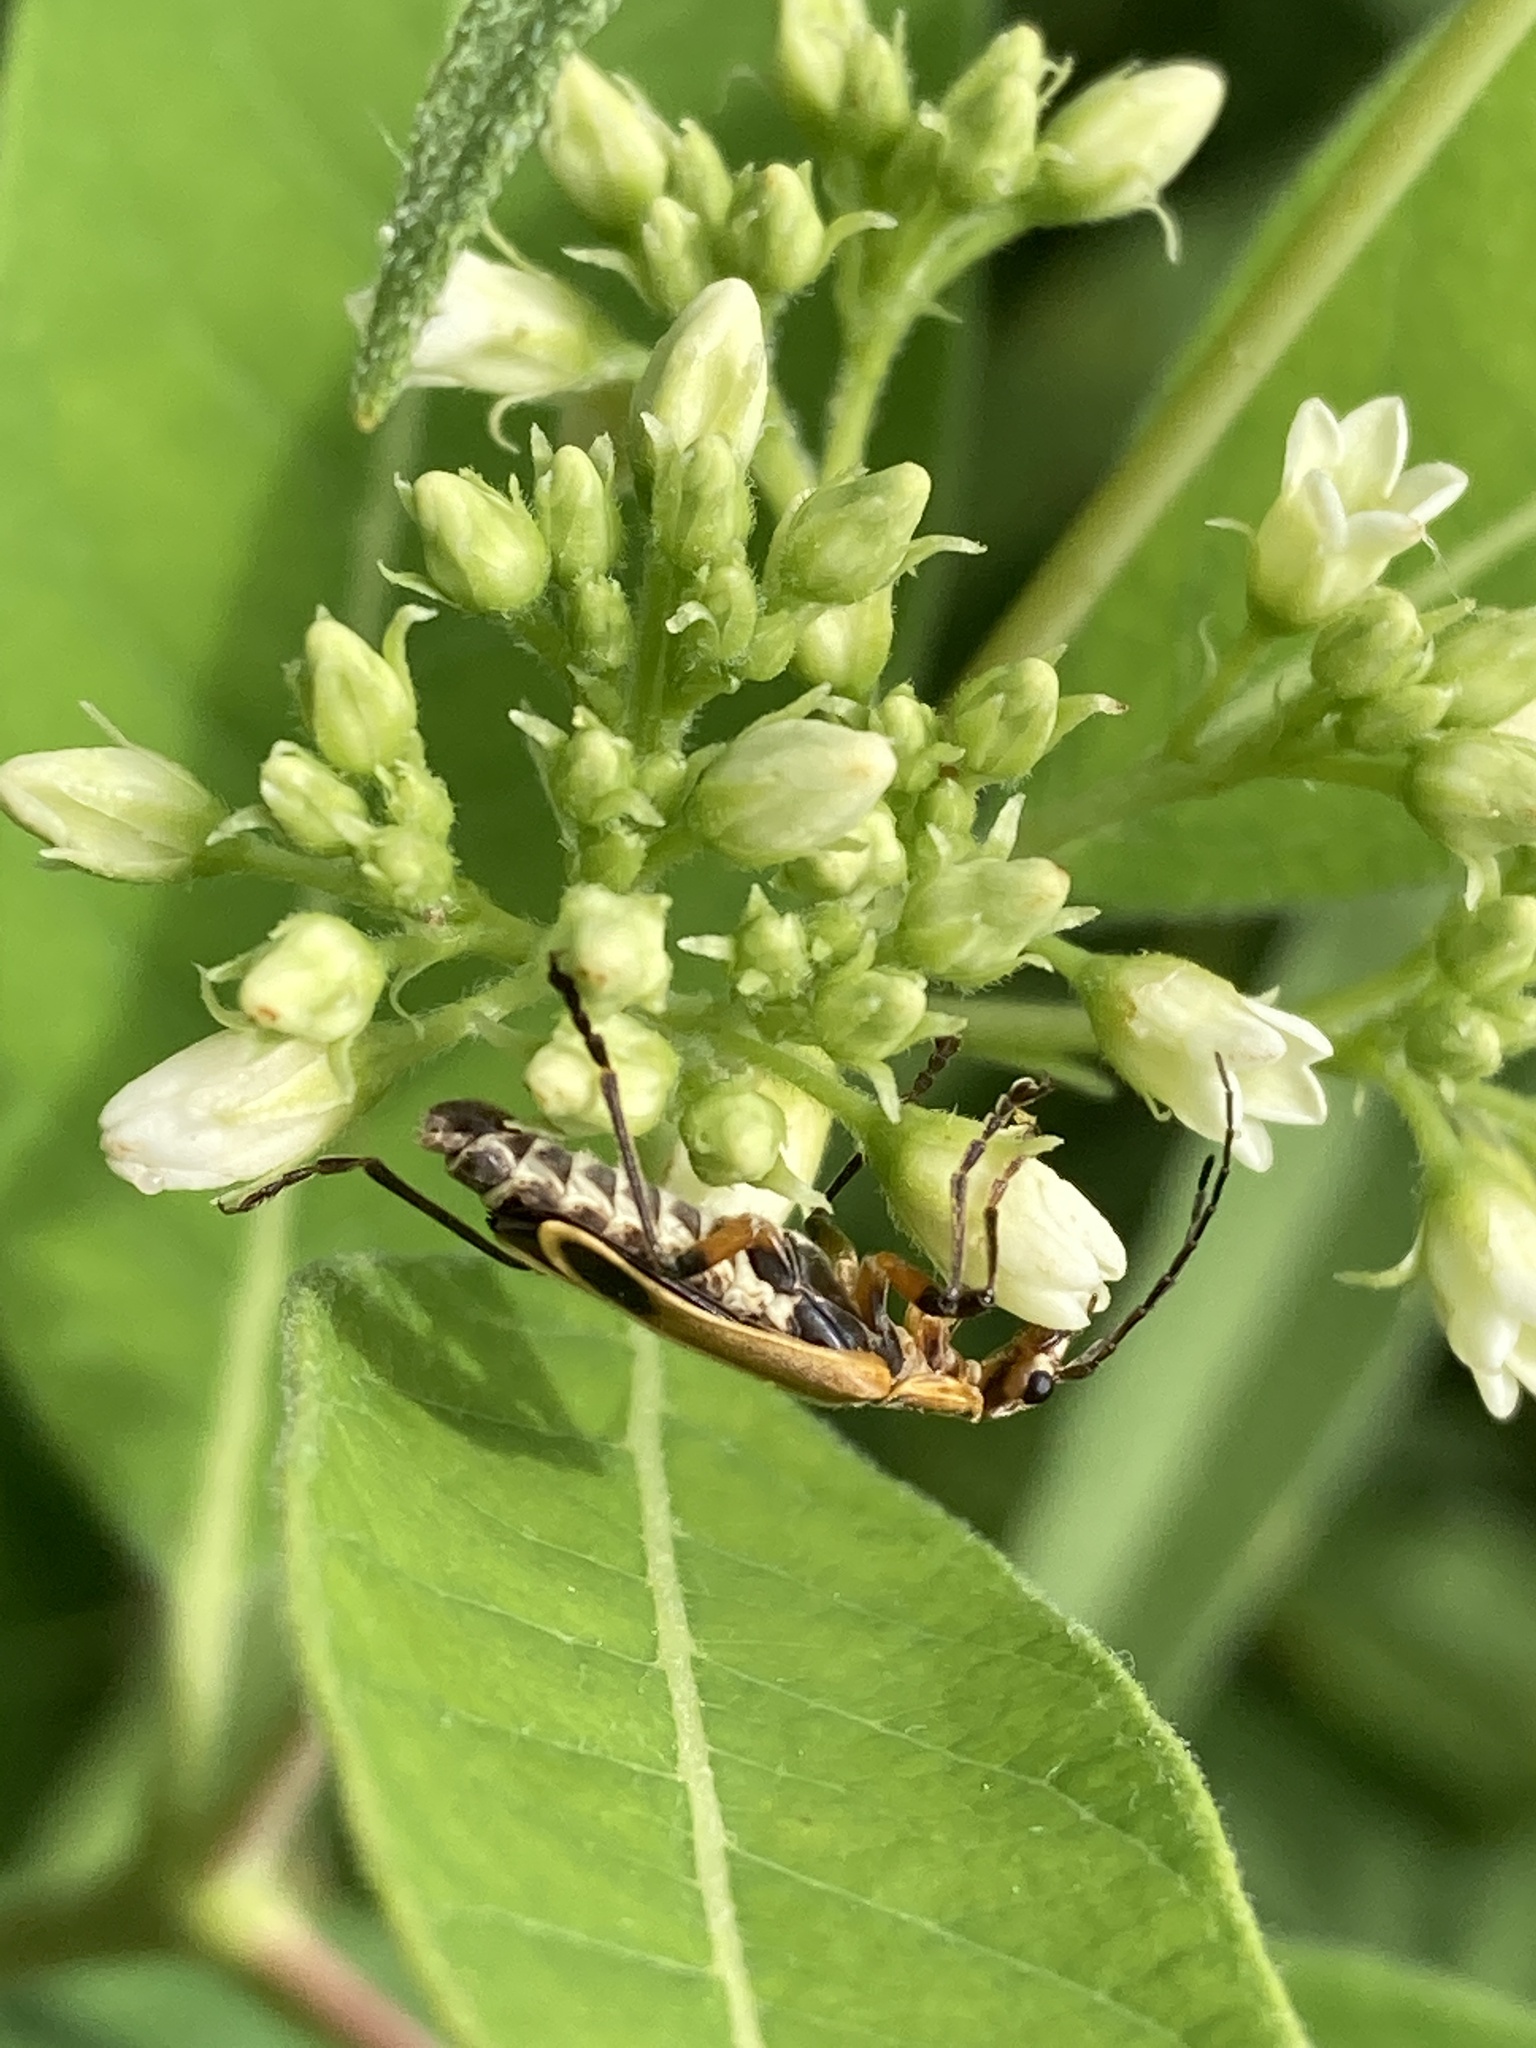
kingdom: Animalia
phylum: Arthropoda
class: Insecta
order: Coleoptera
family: Cantharidae
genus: Chauliognathus
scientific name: Chauliognathus marginatus
